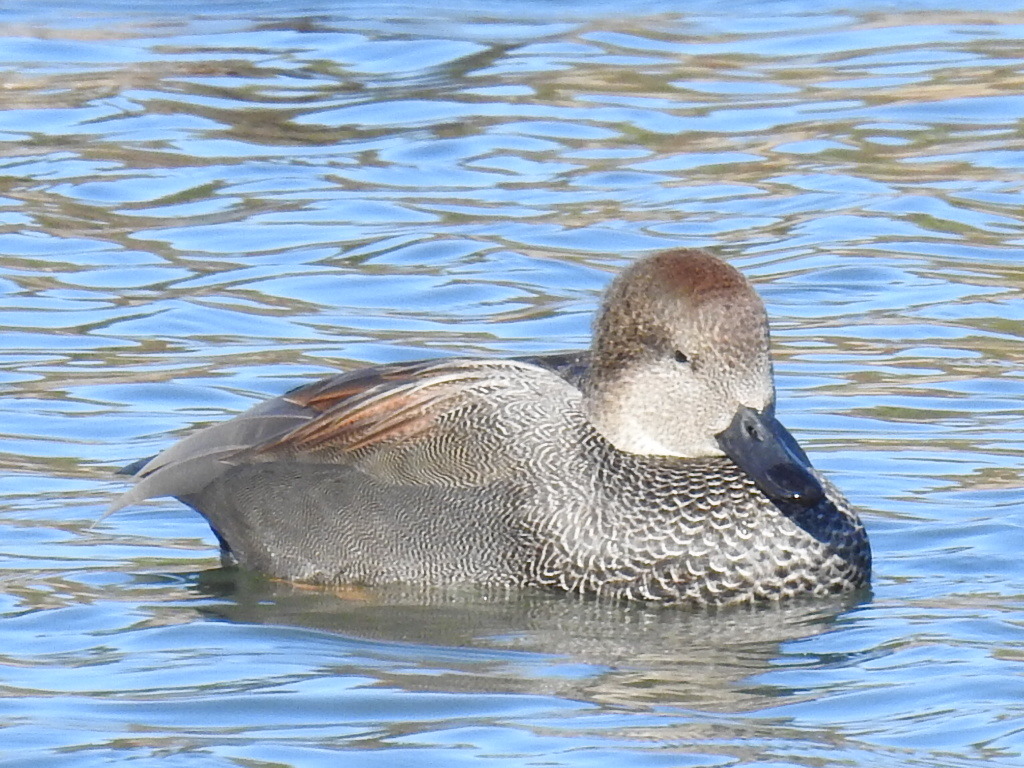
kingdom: Animalia
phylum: Chordata
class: Aves
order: Anseriformes
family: Anatidae
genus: Mareca
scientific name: Mareca strepera
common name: Gadwall
